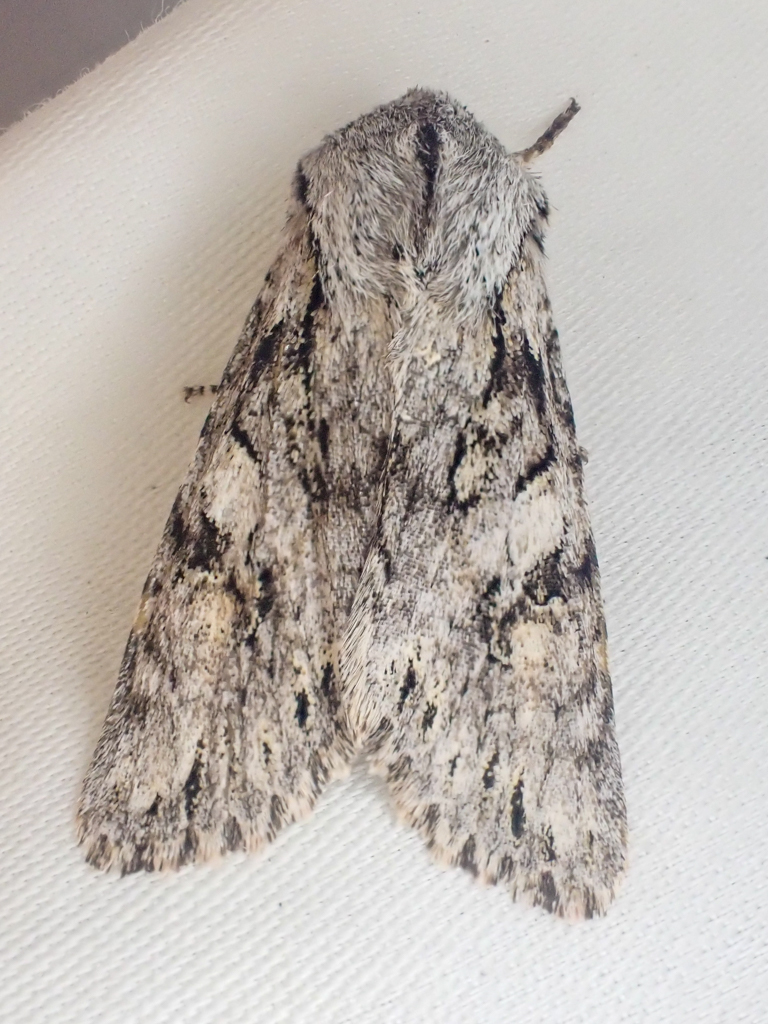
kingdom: Animalia
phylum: Arthropoda
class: Insecta
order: Lepidoptera
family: Noctuidae
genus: Egira
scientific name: Egira simplex
